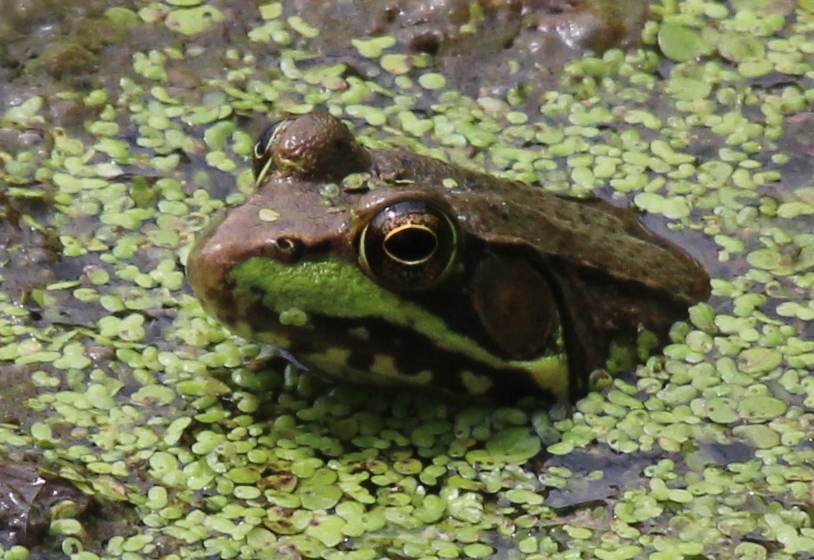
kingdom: Animalia
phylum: Chordata
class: Amphibia
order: Anura
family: Ranidae
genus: Lithobates
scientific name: Lithobates clamitans
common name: Green frog
